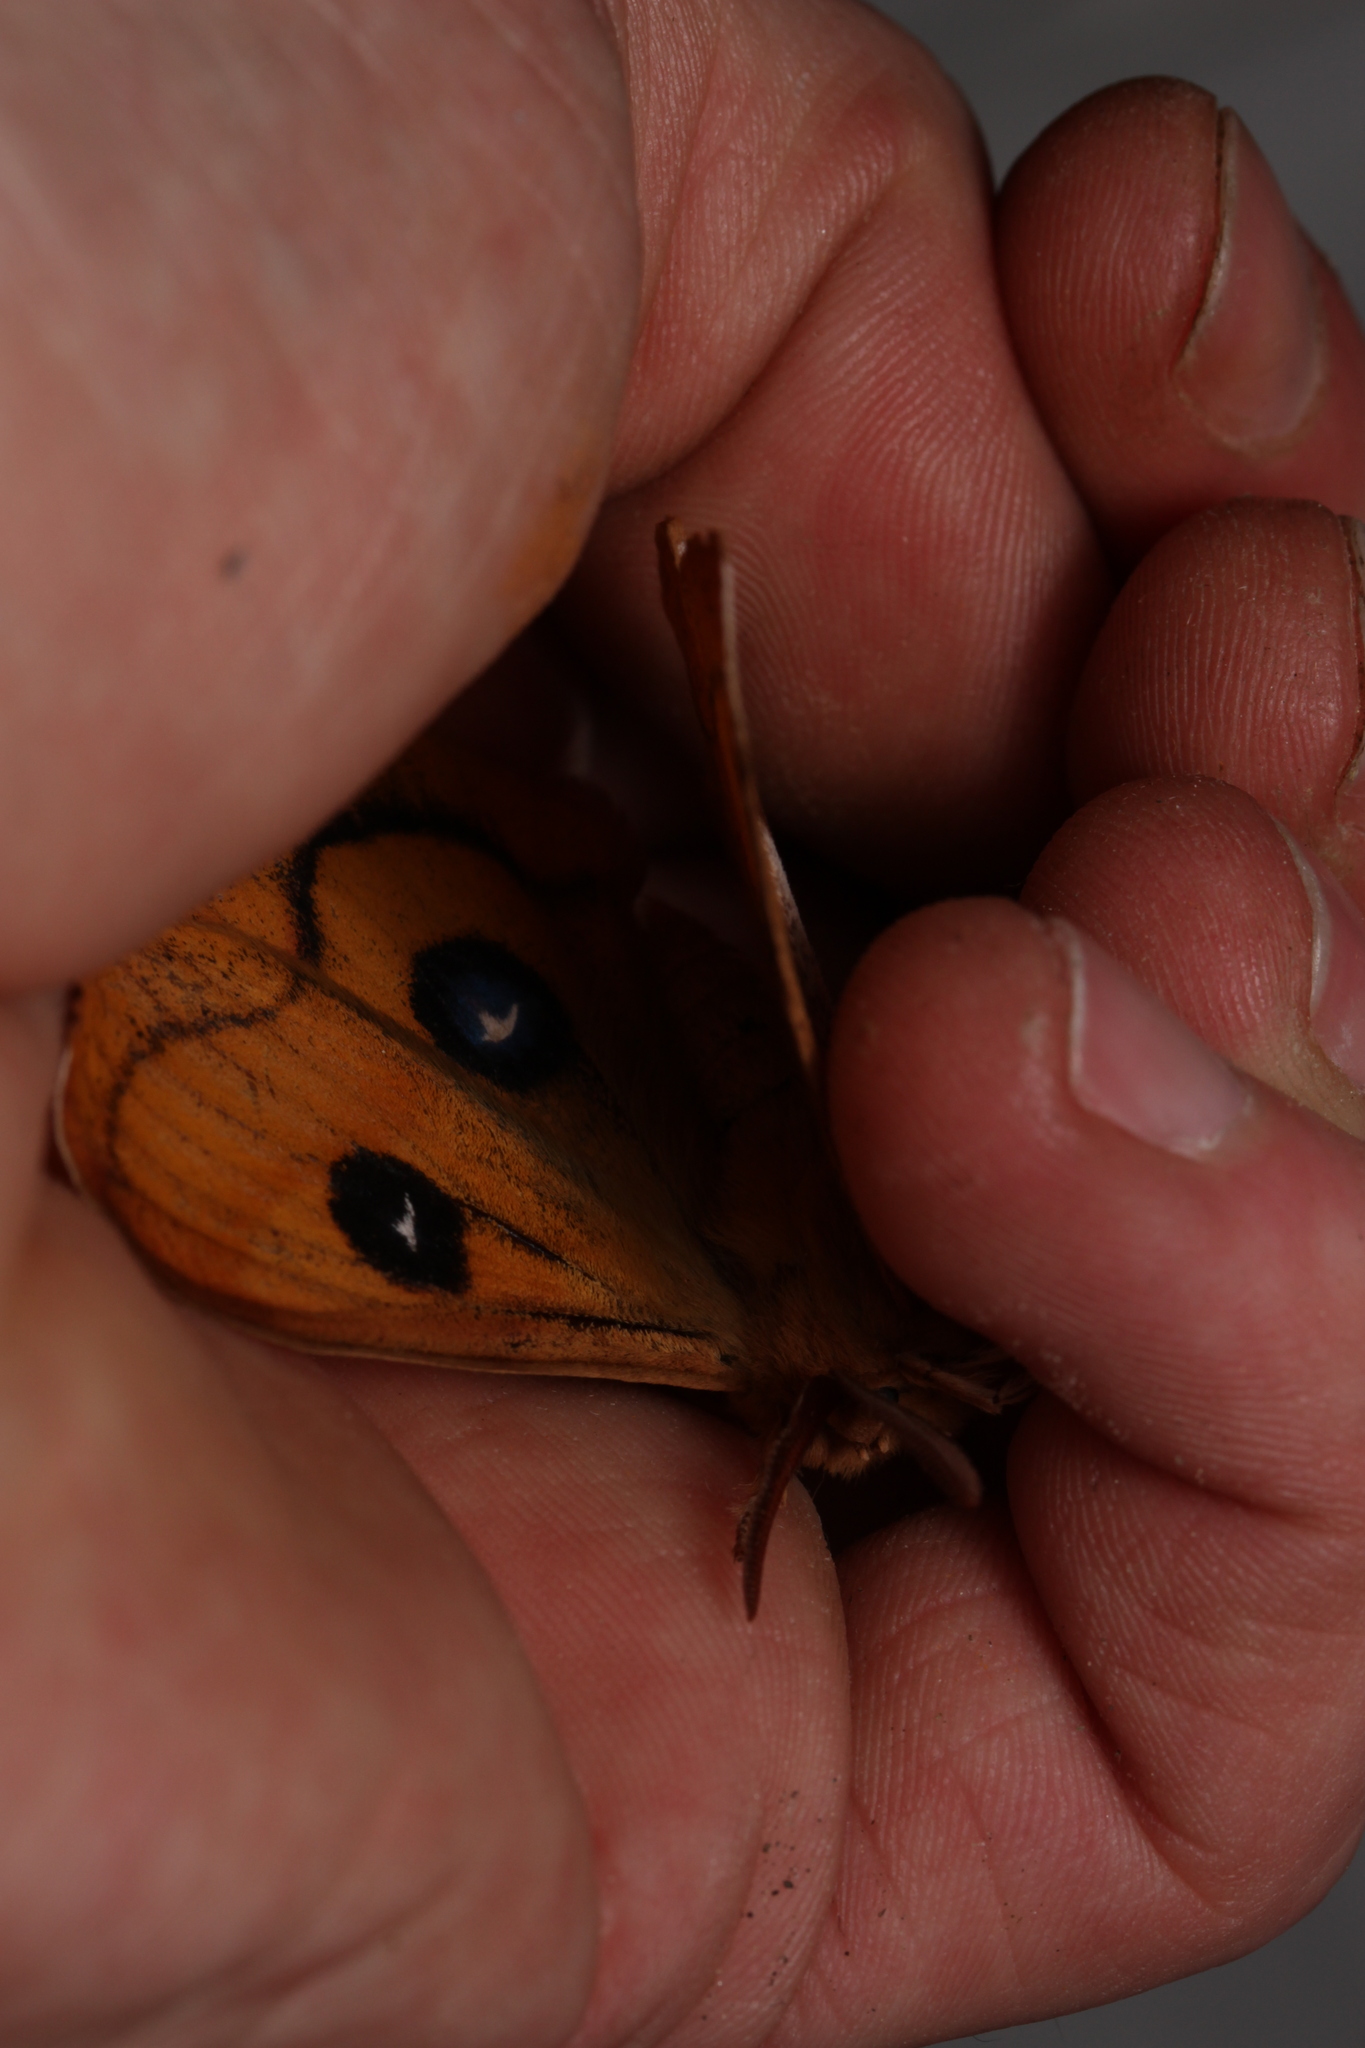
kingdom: Animalia
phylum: Arthropoda
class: Insecta
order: Lepidoptera
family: Saturniidae
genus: Aglia
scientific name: Aglia tau
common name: Tau emperor
